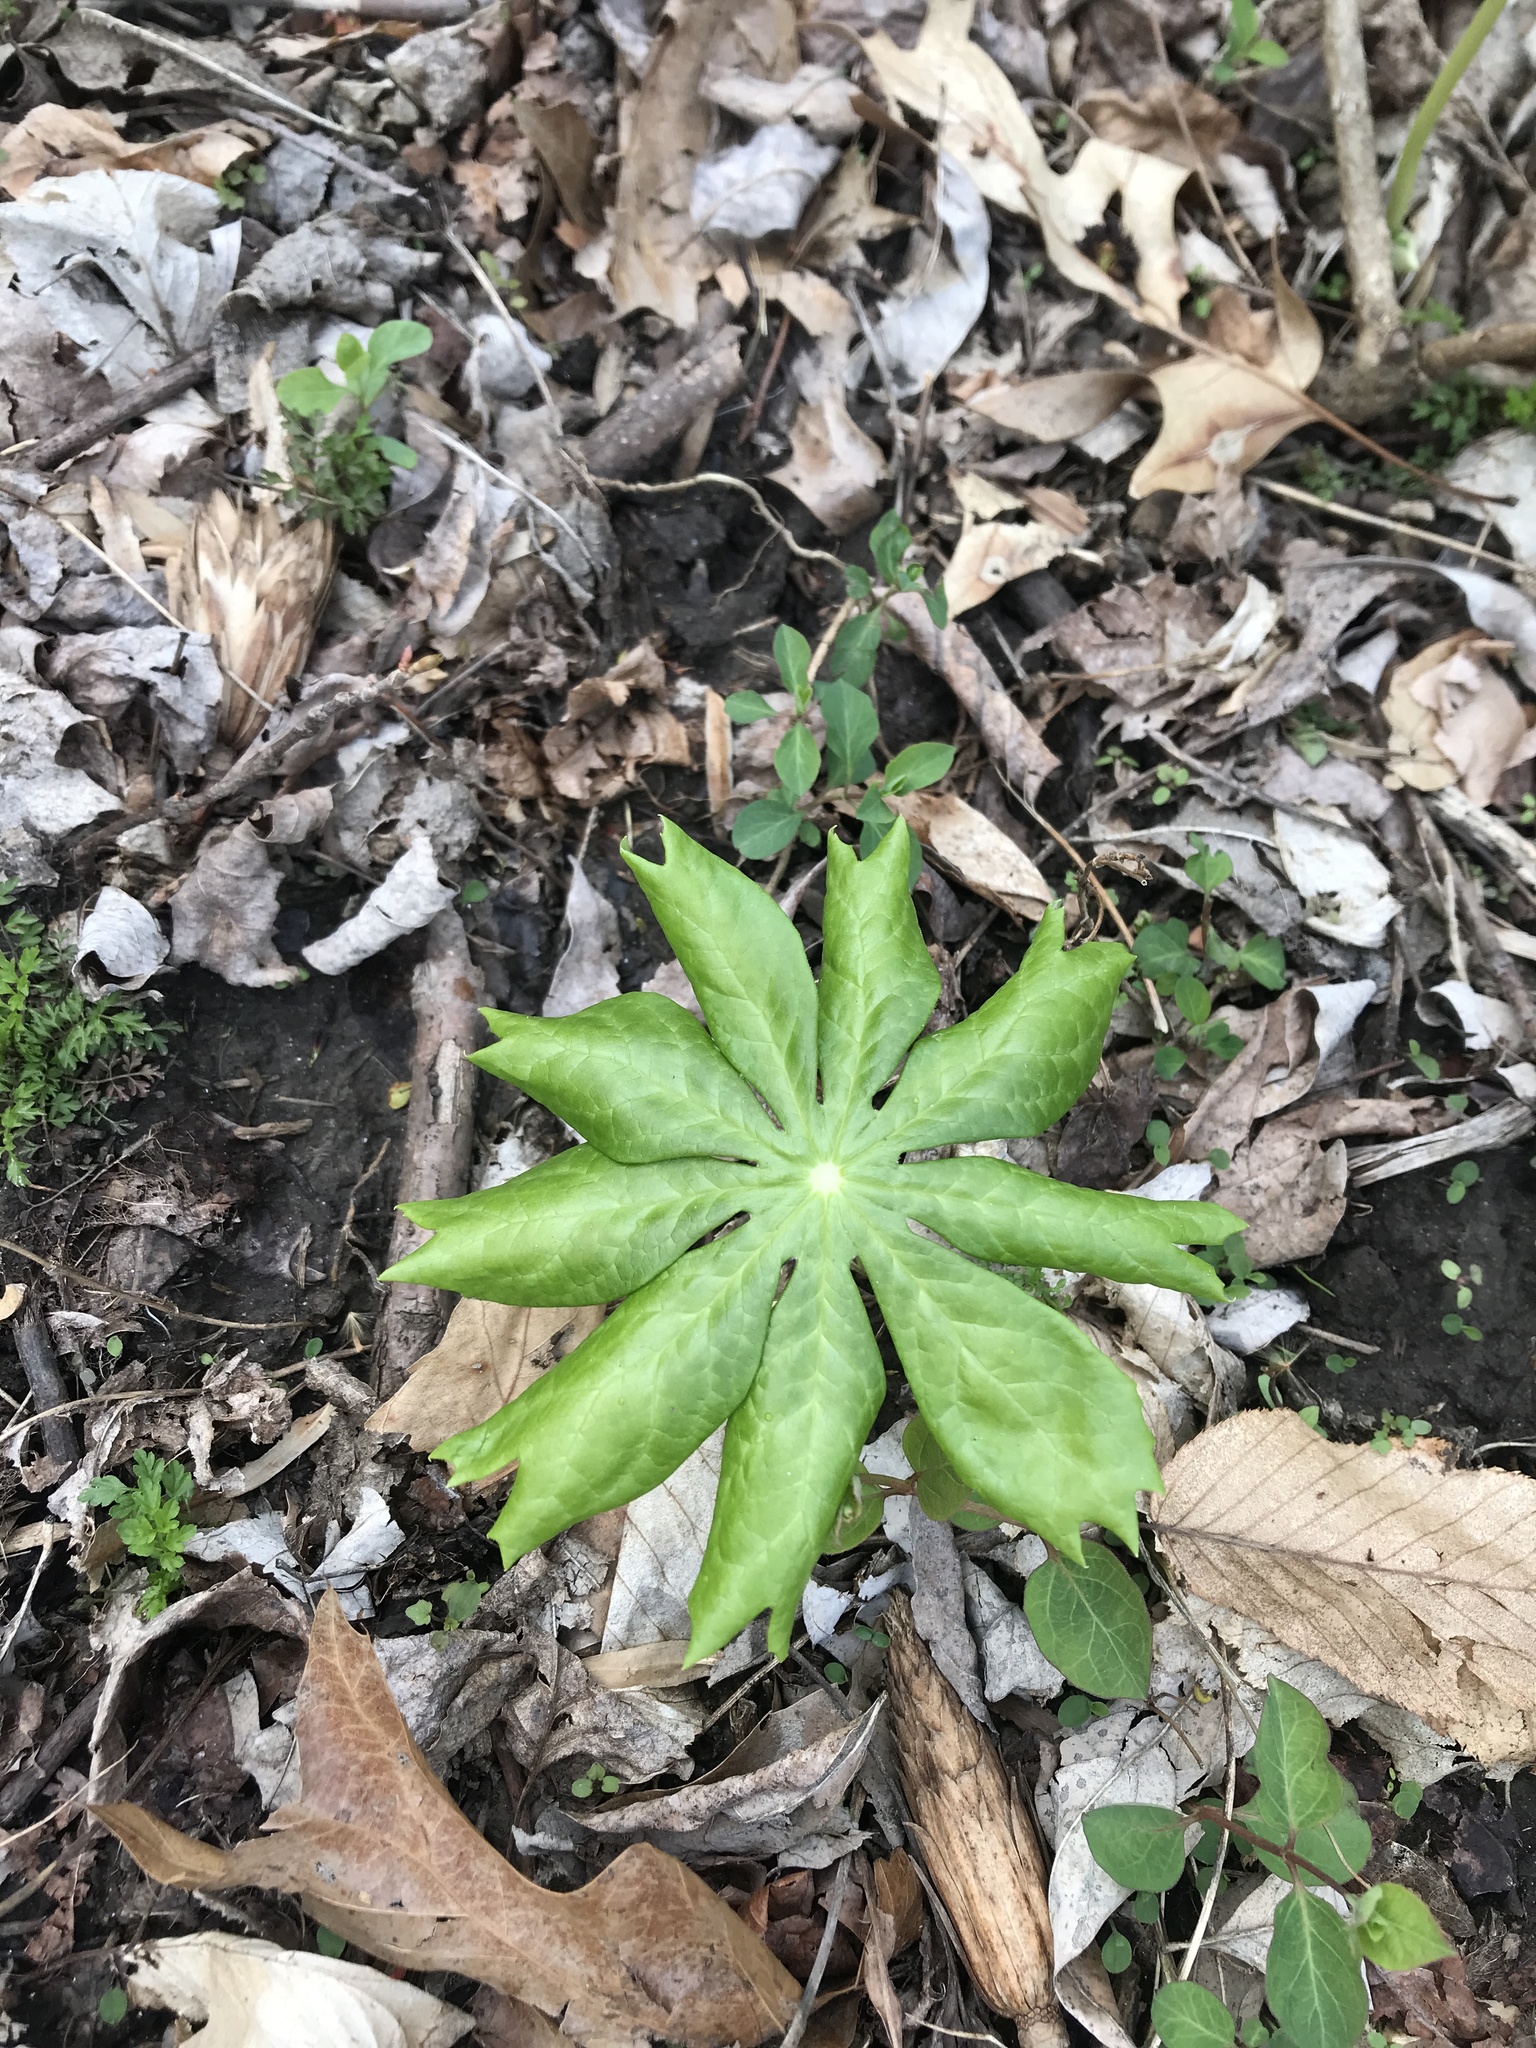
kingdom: Plantae
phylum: Tracheophyta
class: Magnoliopsida
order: Ranunculales
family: Berberidaceae
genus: Podophyllum
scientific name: Podophyllum peltatum
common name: Wild mandrake
